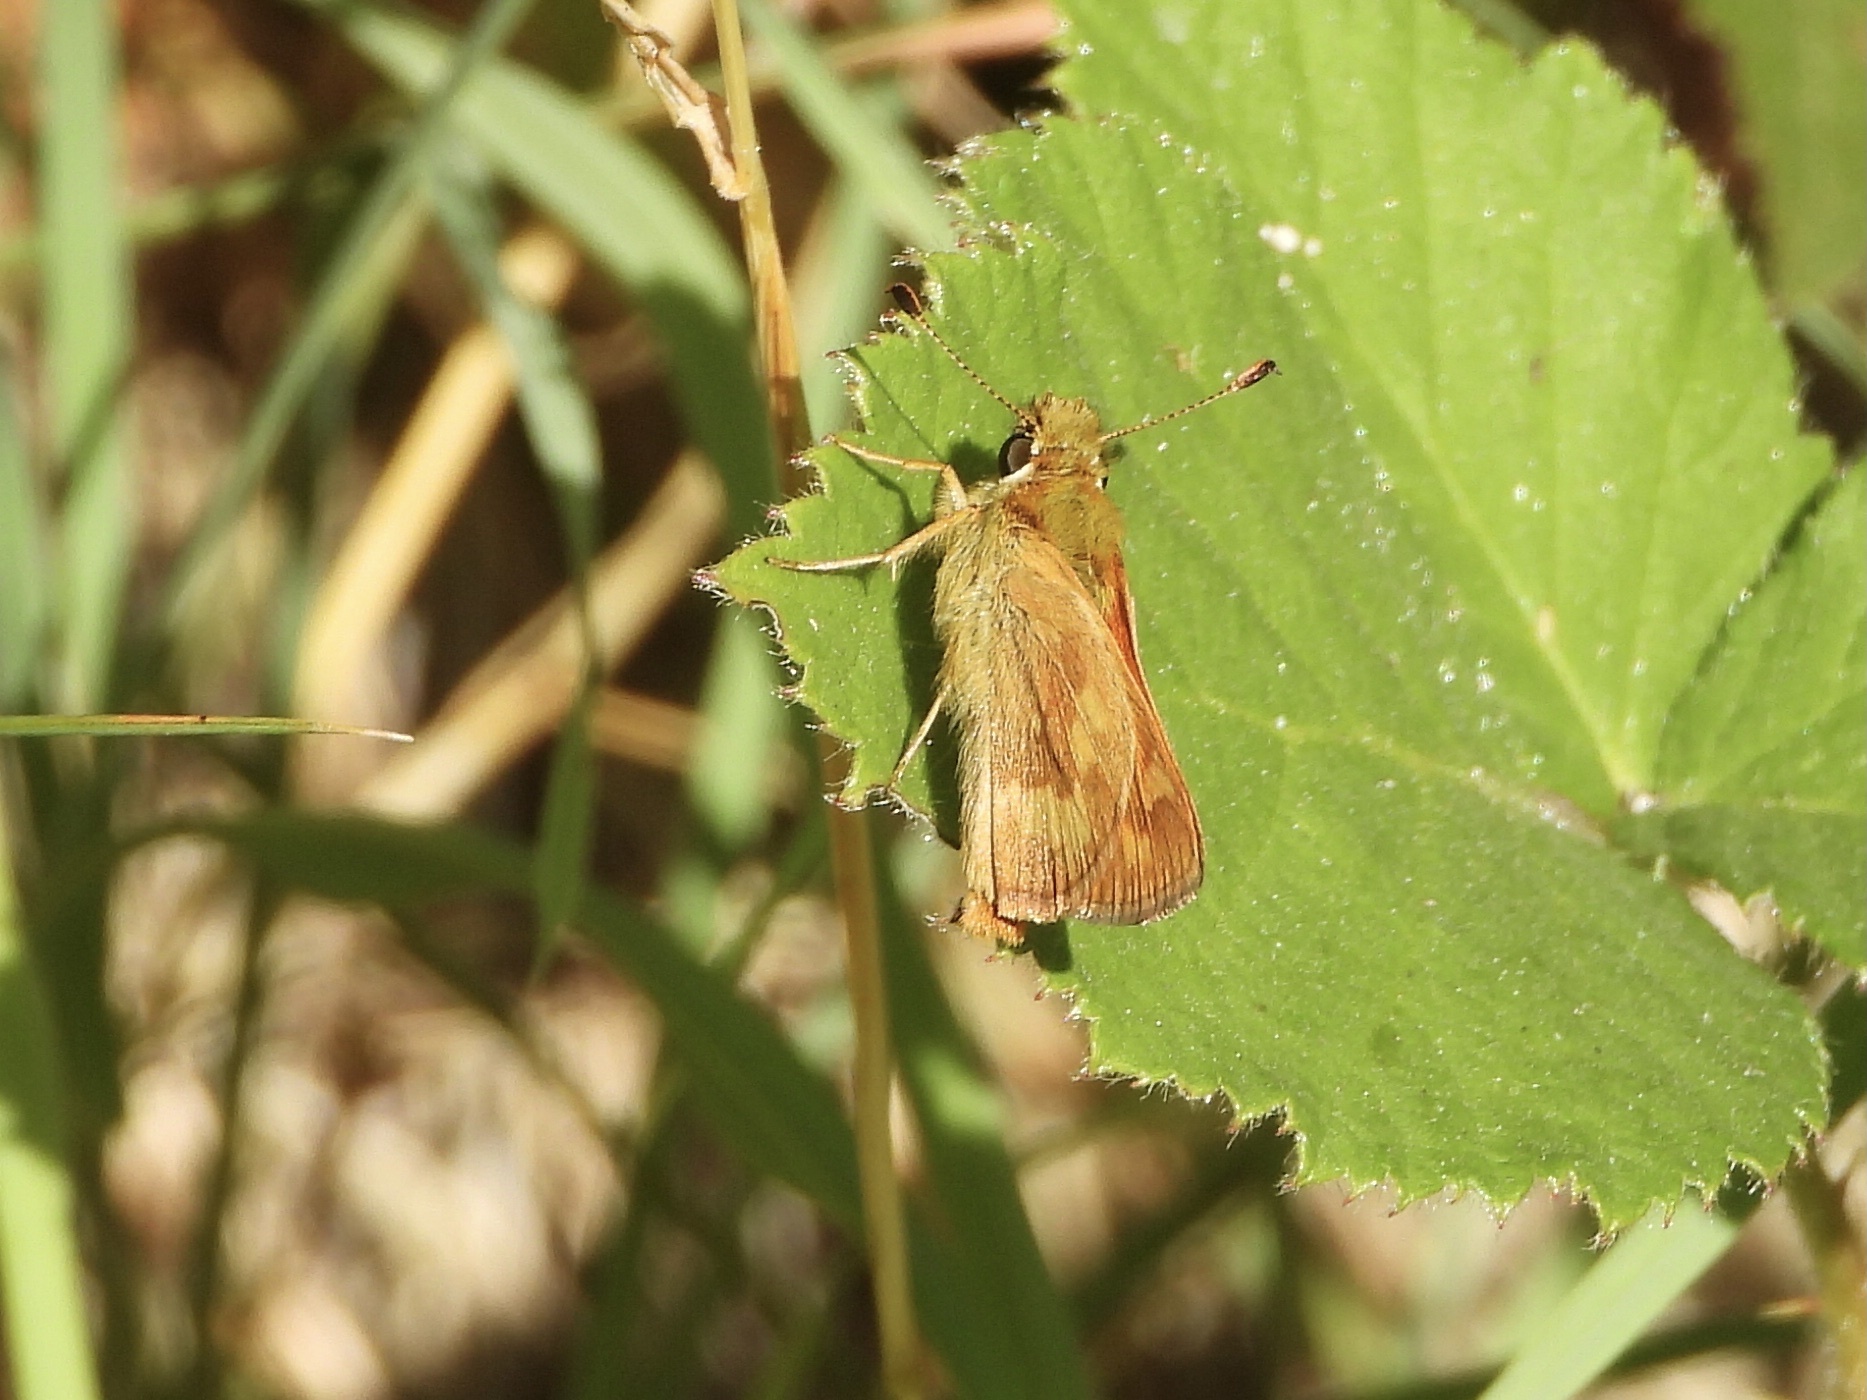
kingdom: Animalia
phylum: Arthropoda
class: Insecta
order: Lepidoptera
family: Hesperiidae
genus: Ochlodes
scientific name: Ochlodes sylvanoides
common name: Woodland skipper
